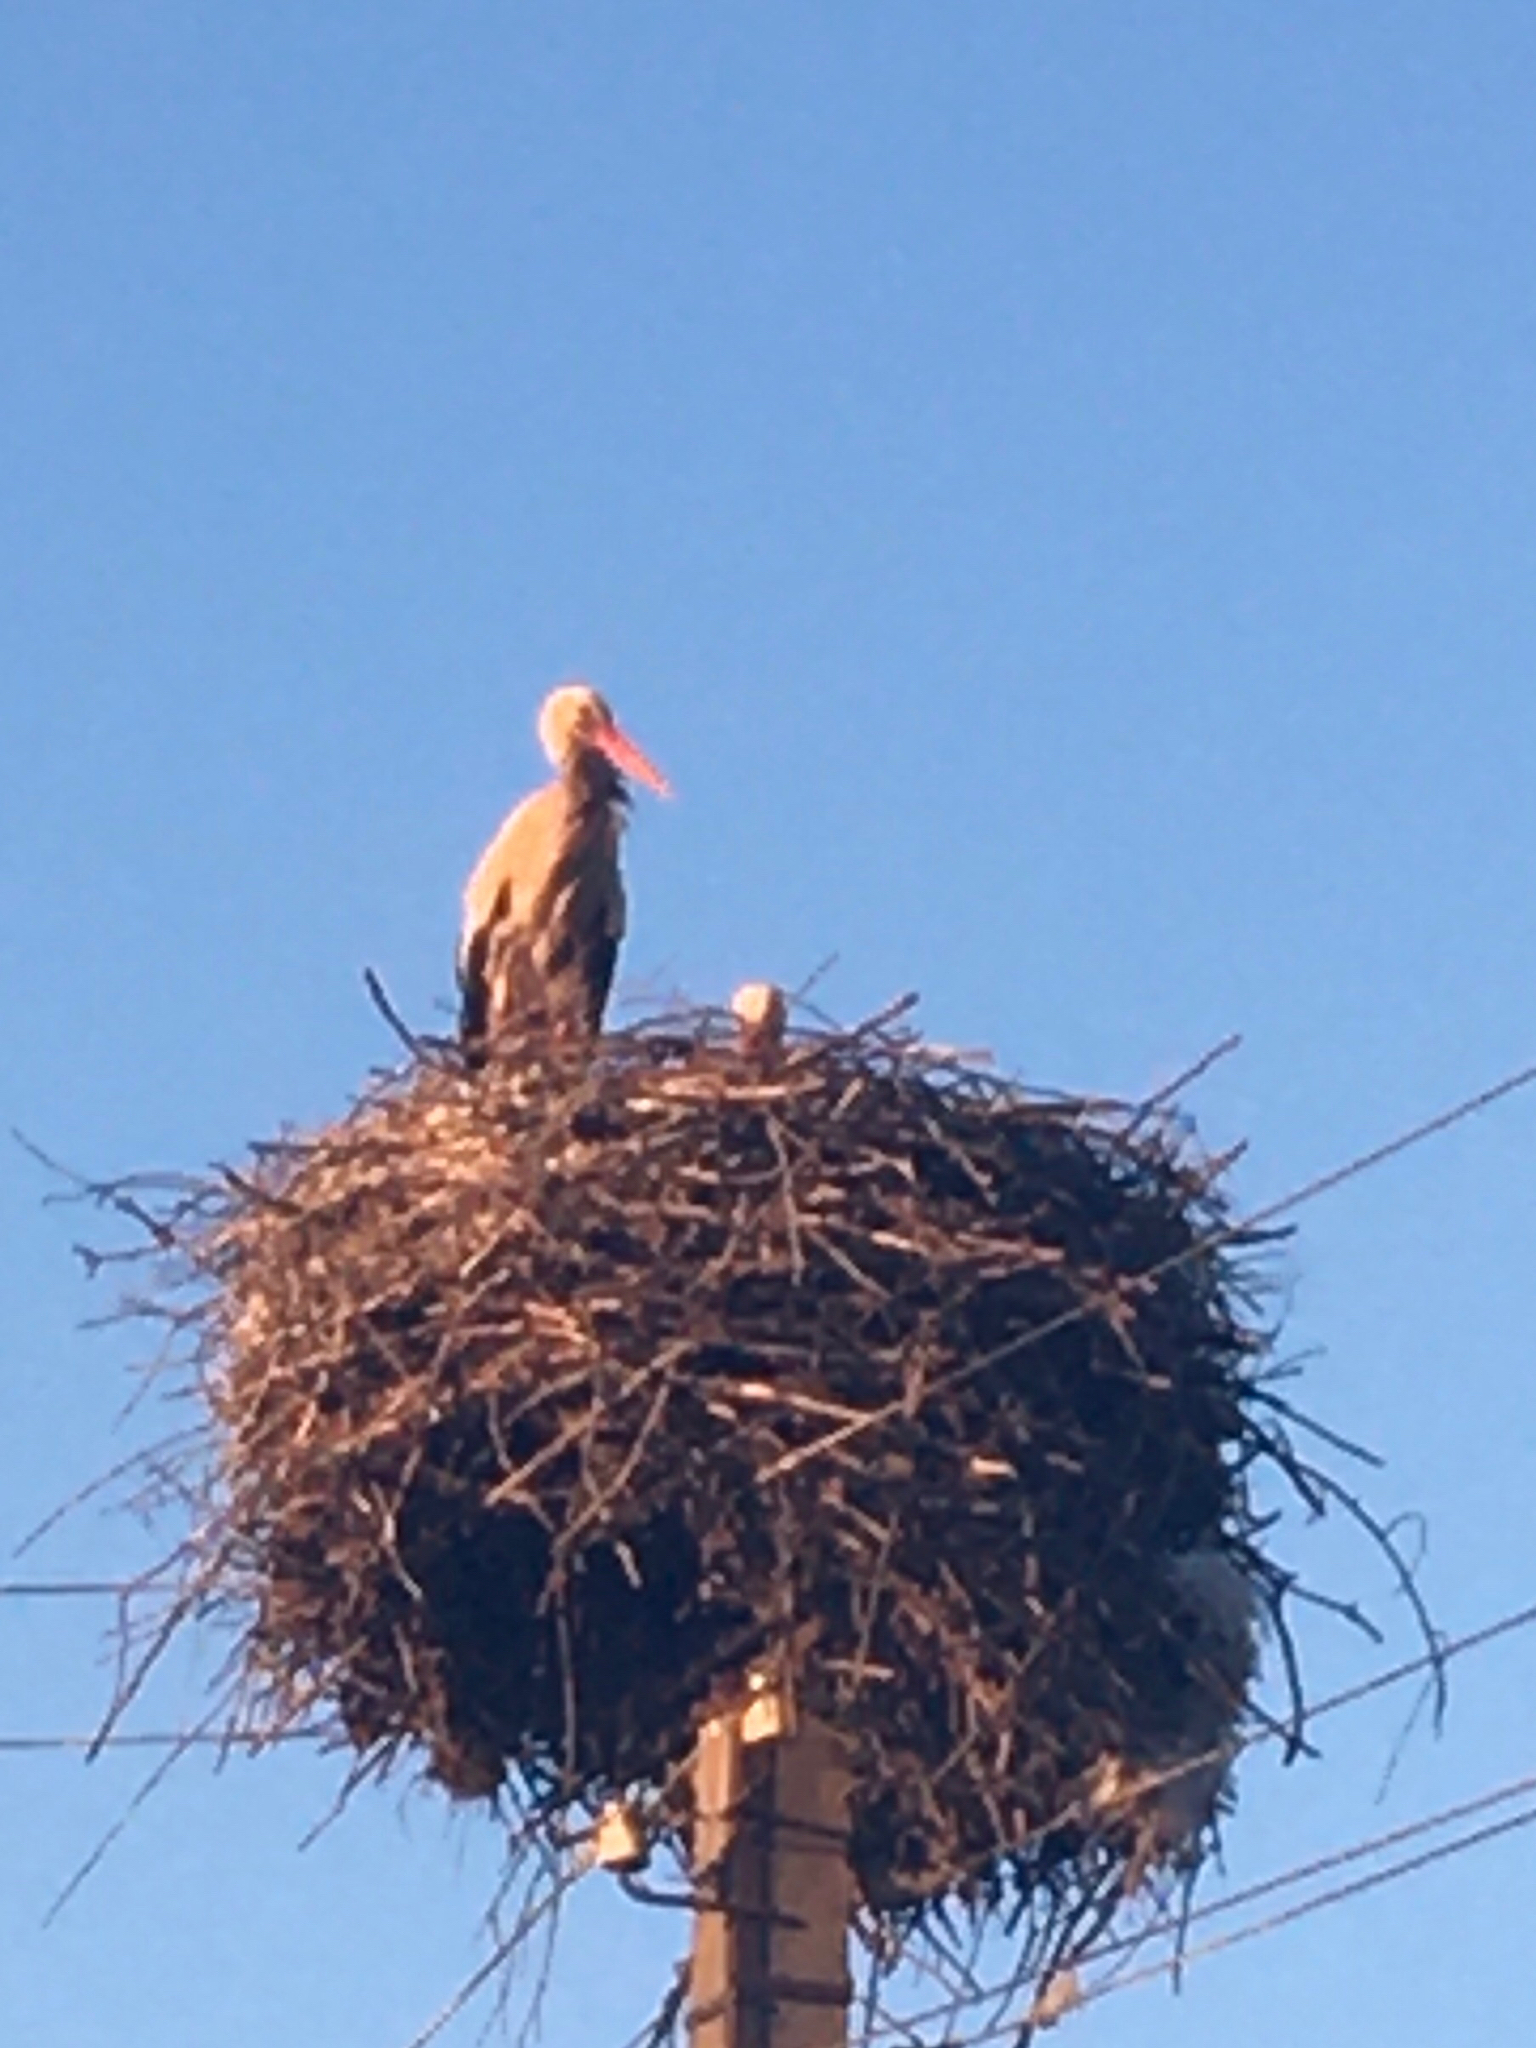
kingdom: Animalia
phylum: Chordata
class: Aves
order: Ciconiiformes
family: Ciconiidae
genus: Ciconia
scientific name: Ciconia ciconia
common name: White stork
